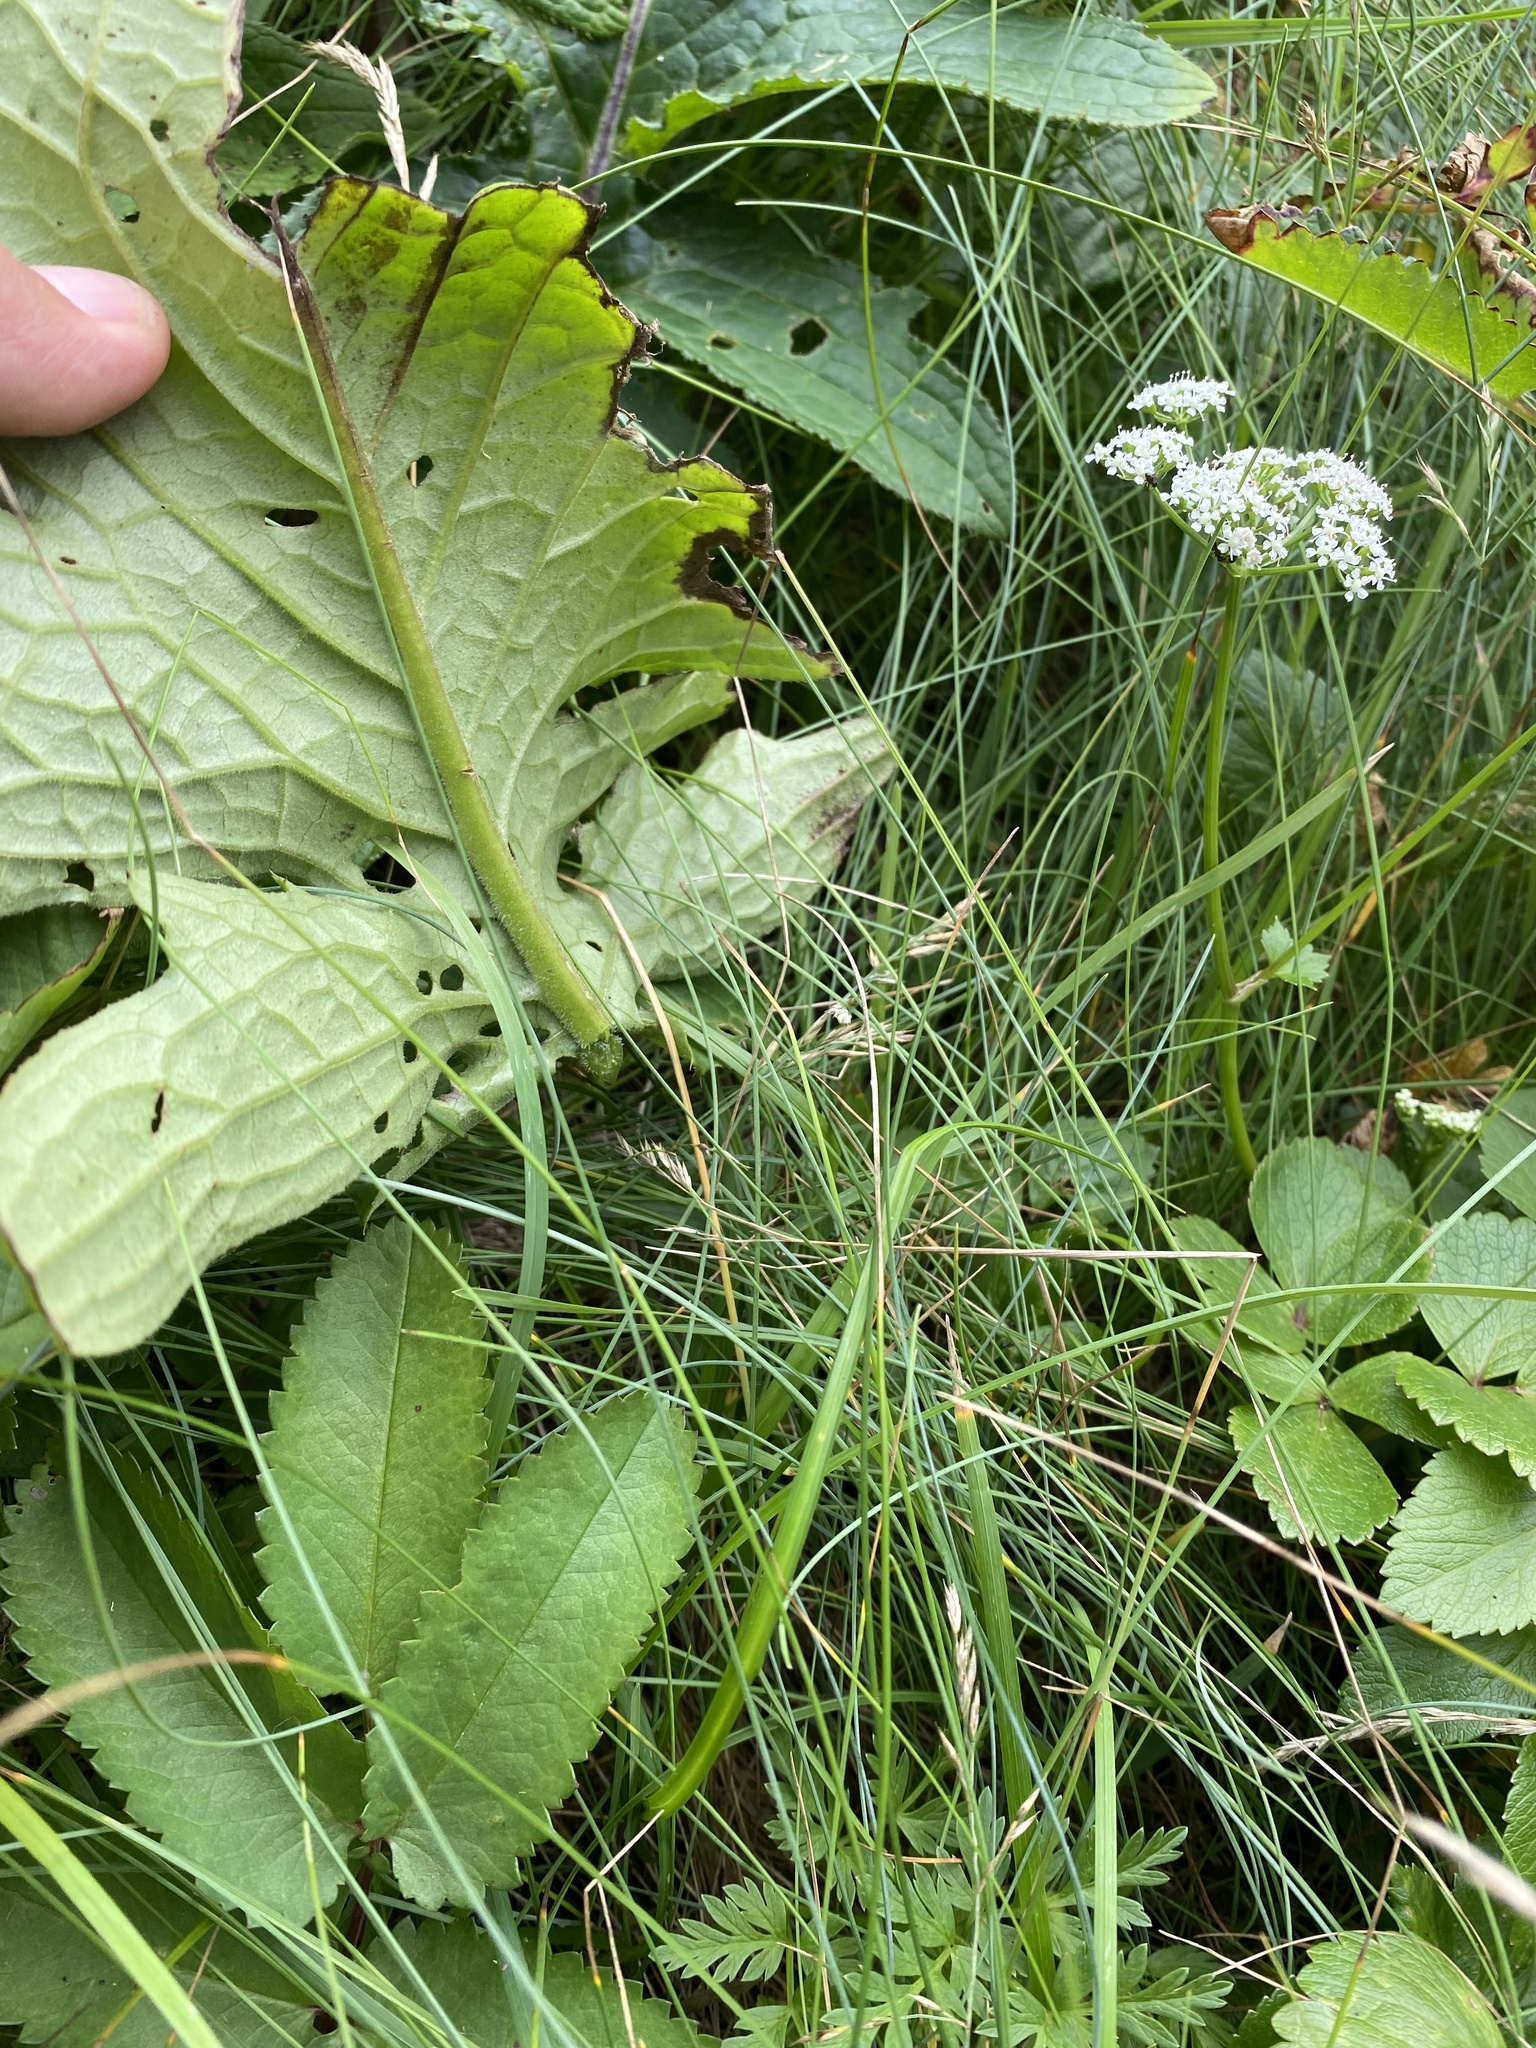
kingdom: Plantae
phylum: Tracheophyta
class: Magnoliopsida
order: Asterales
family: Asteraceae
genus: Cirsium
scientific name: Cirsium kamtschaticum
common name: Kamchatka thistle
